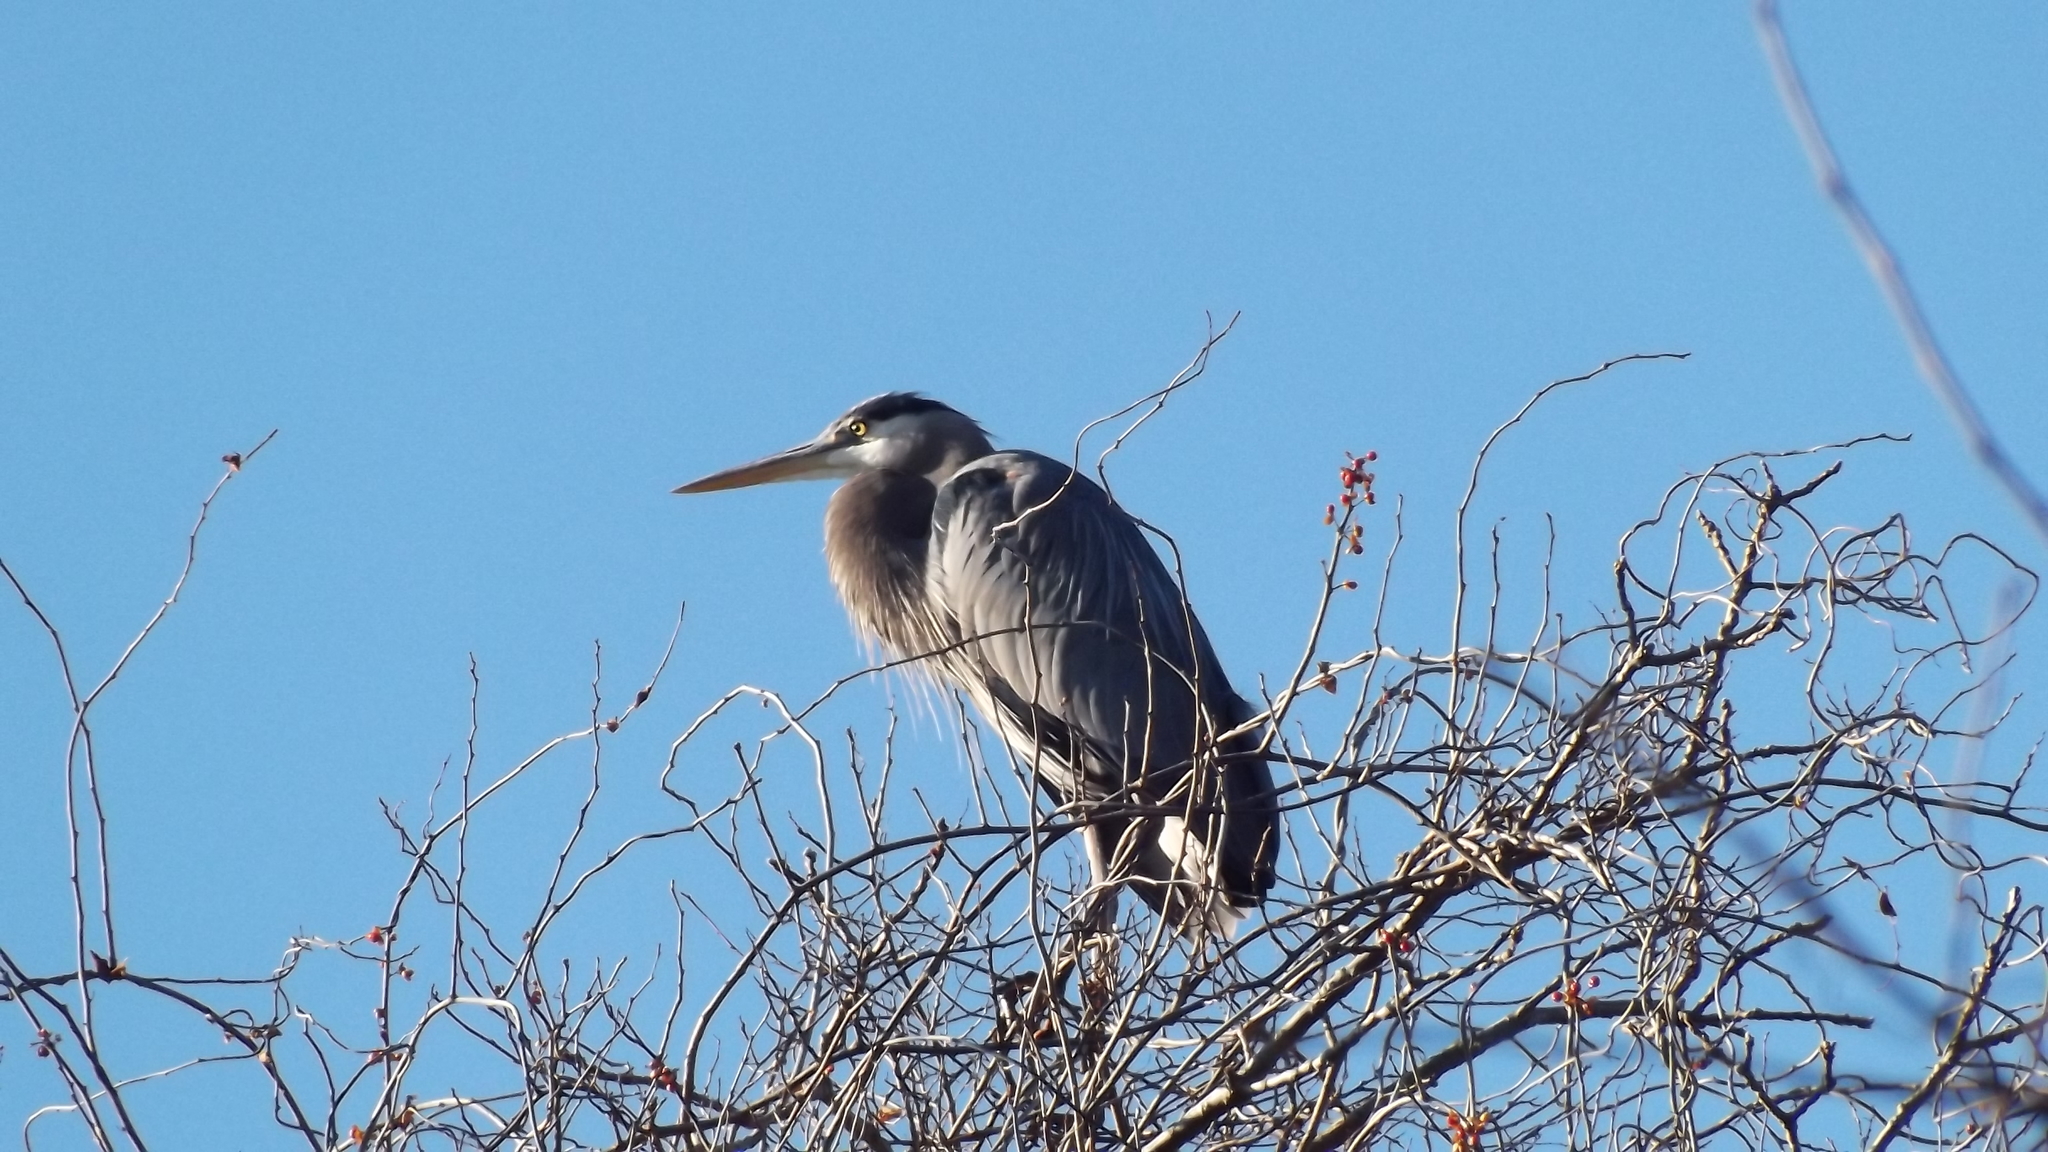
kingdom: Animalia
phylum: Chordata
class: Aves
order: Pelecaniformes
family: Ardeidae
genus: Ardea
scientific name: Ardea herodias
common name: Great blue heron
